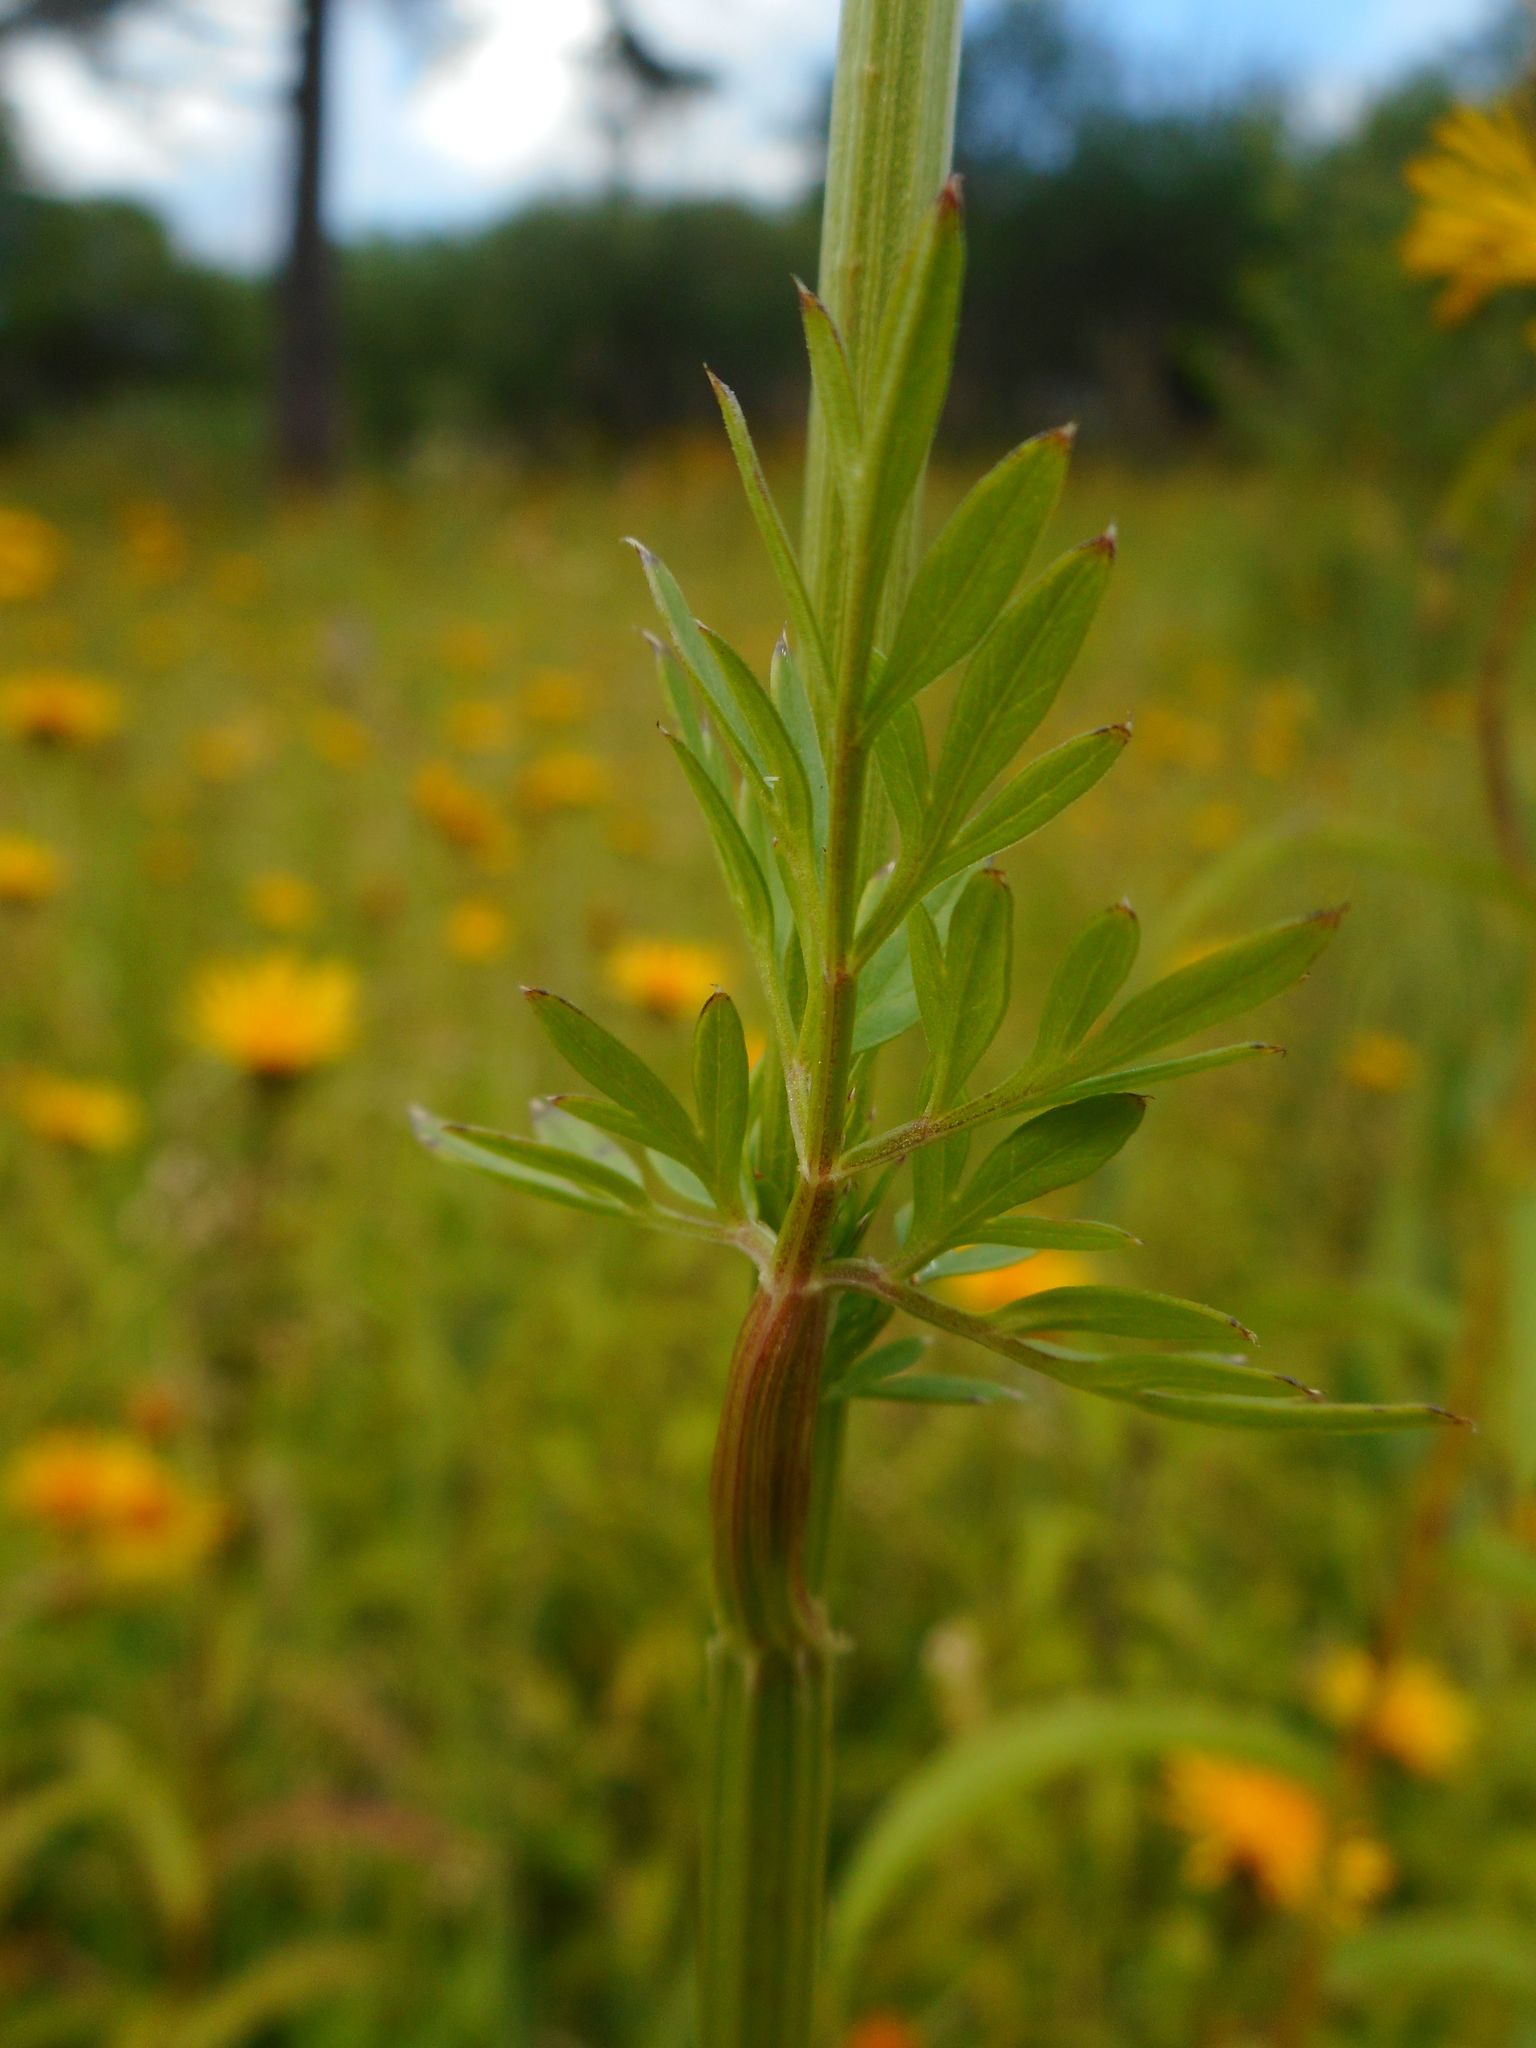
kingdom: Plantae
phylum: Tracheophyta
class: Magnoliopsida
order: Apiales
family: Apiaceae
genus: Selinum
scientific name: Selinum carvifolia
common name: Cambridge milk-parsley
